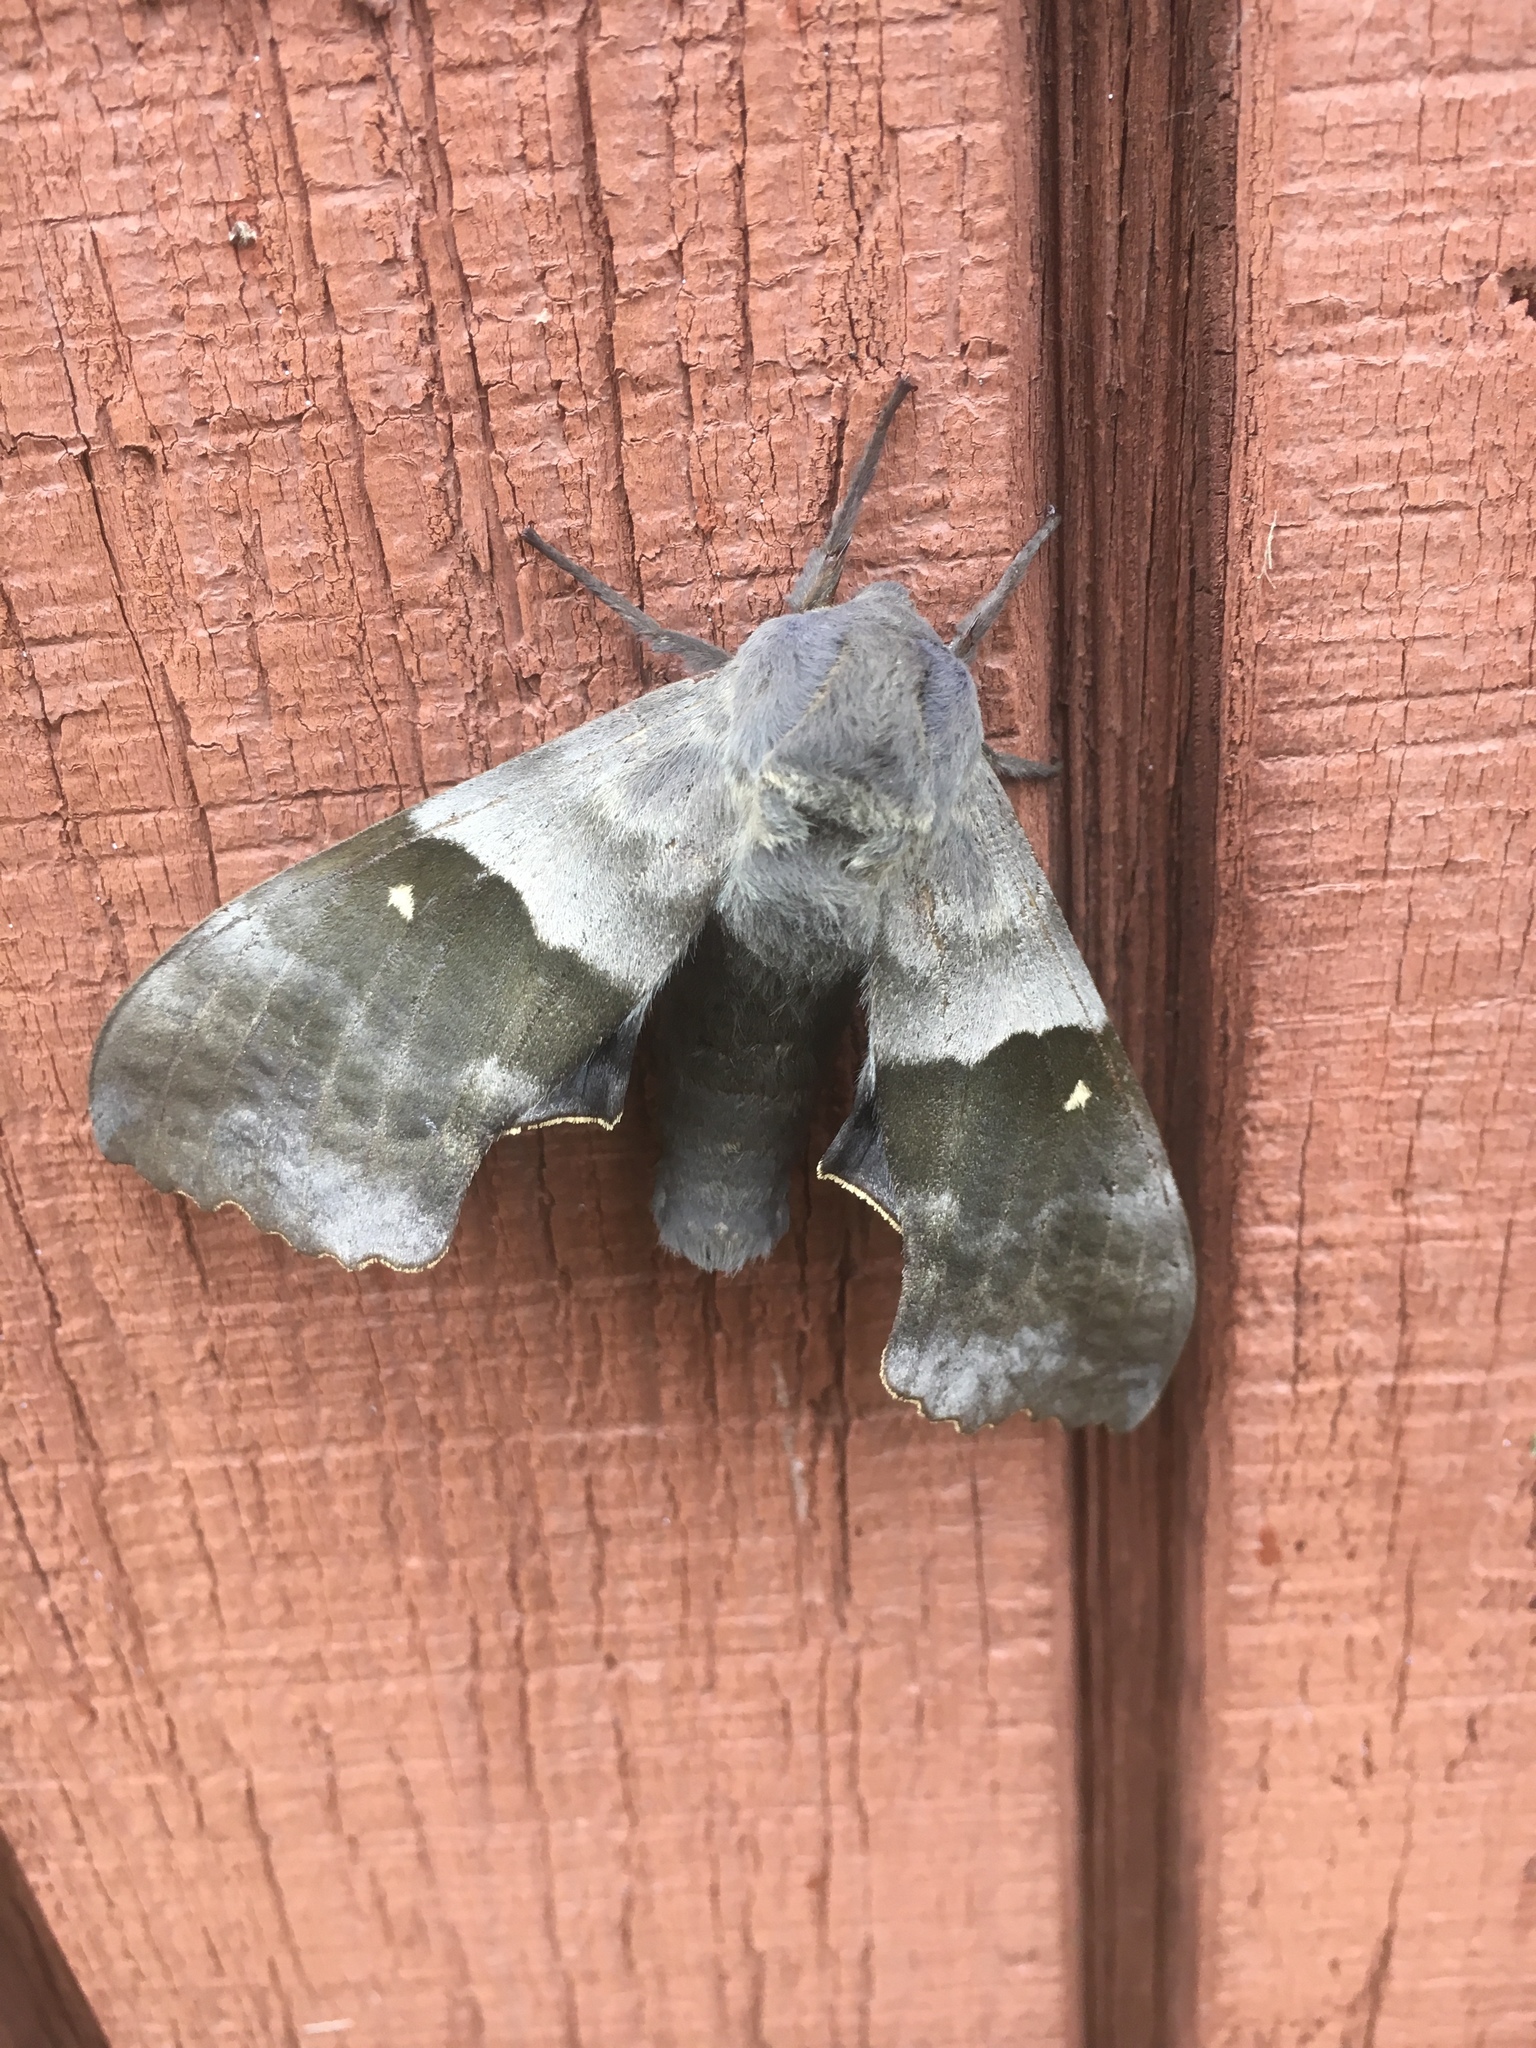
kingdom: Animalia
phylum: Arthropoda
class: Insecta
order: Lepidoptera
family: Sphingidae
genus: Pachysphinx
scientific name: Pachysphinx modesta
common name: Big poplar sphinx
